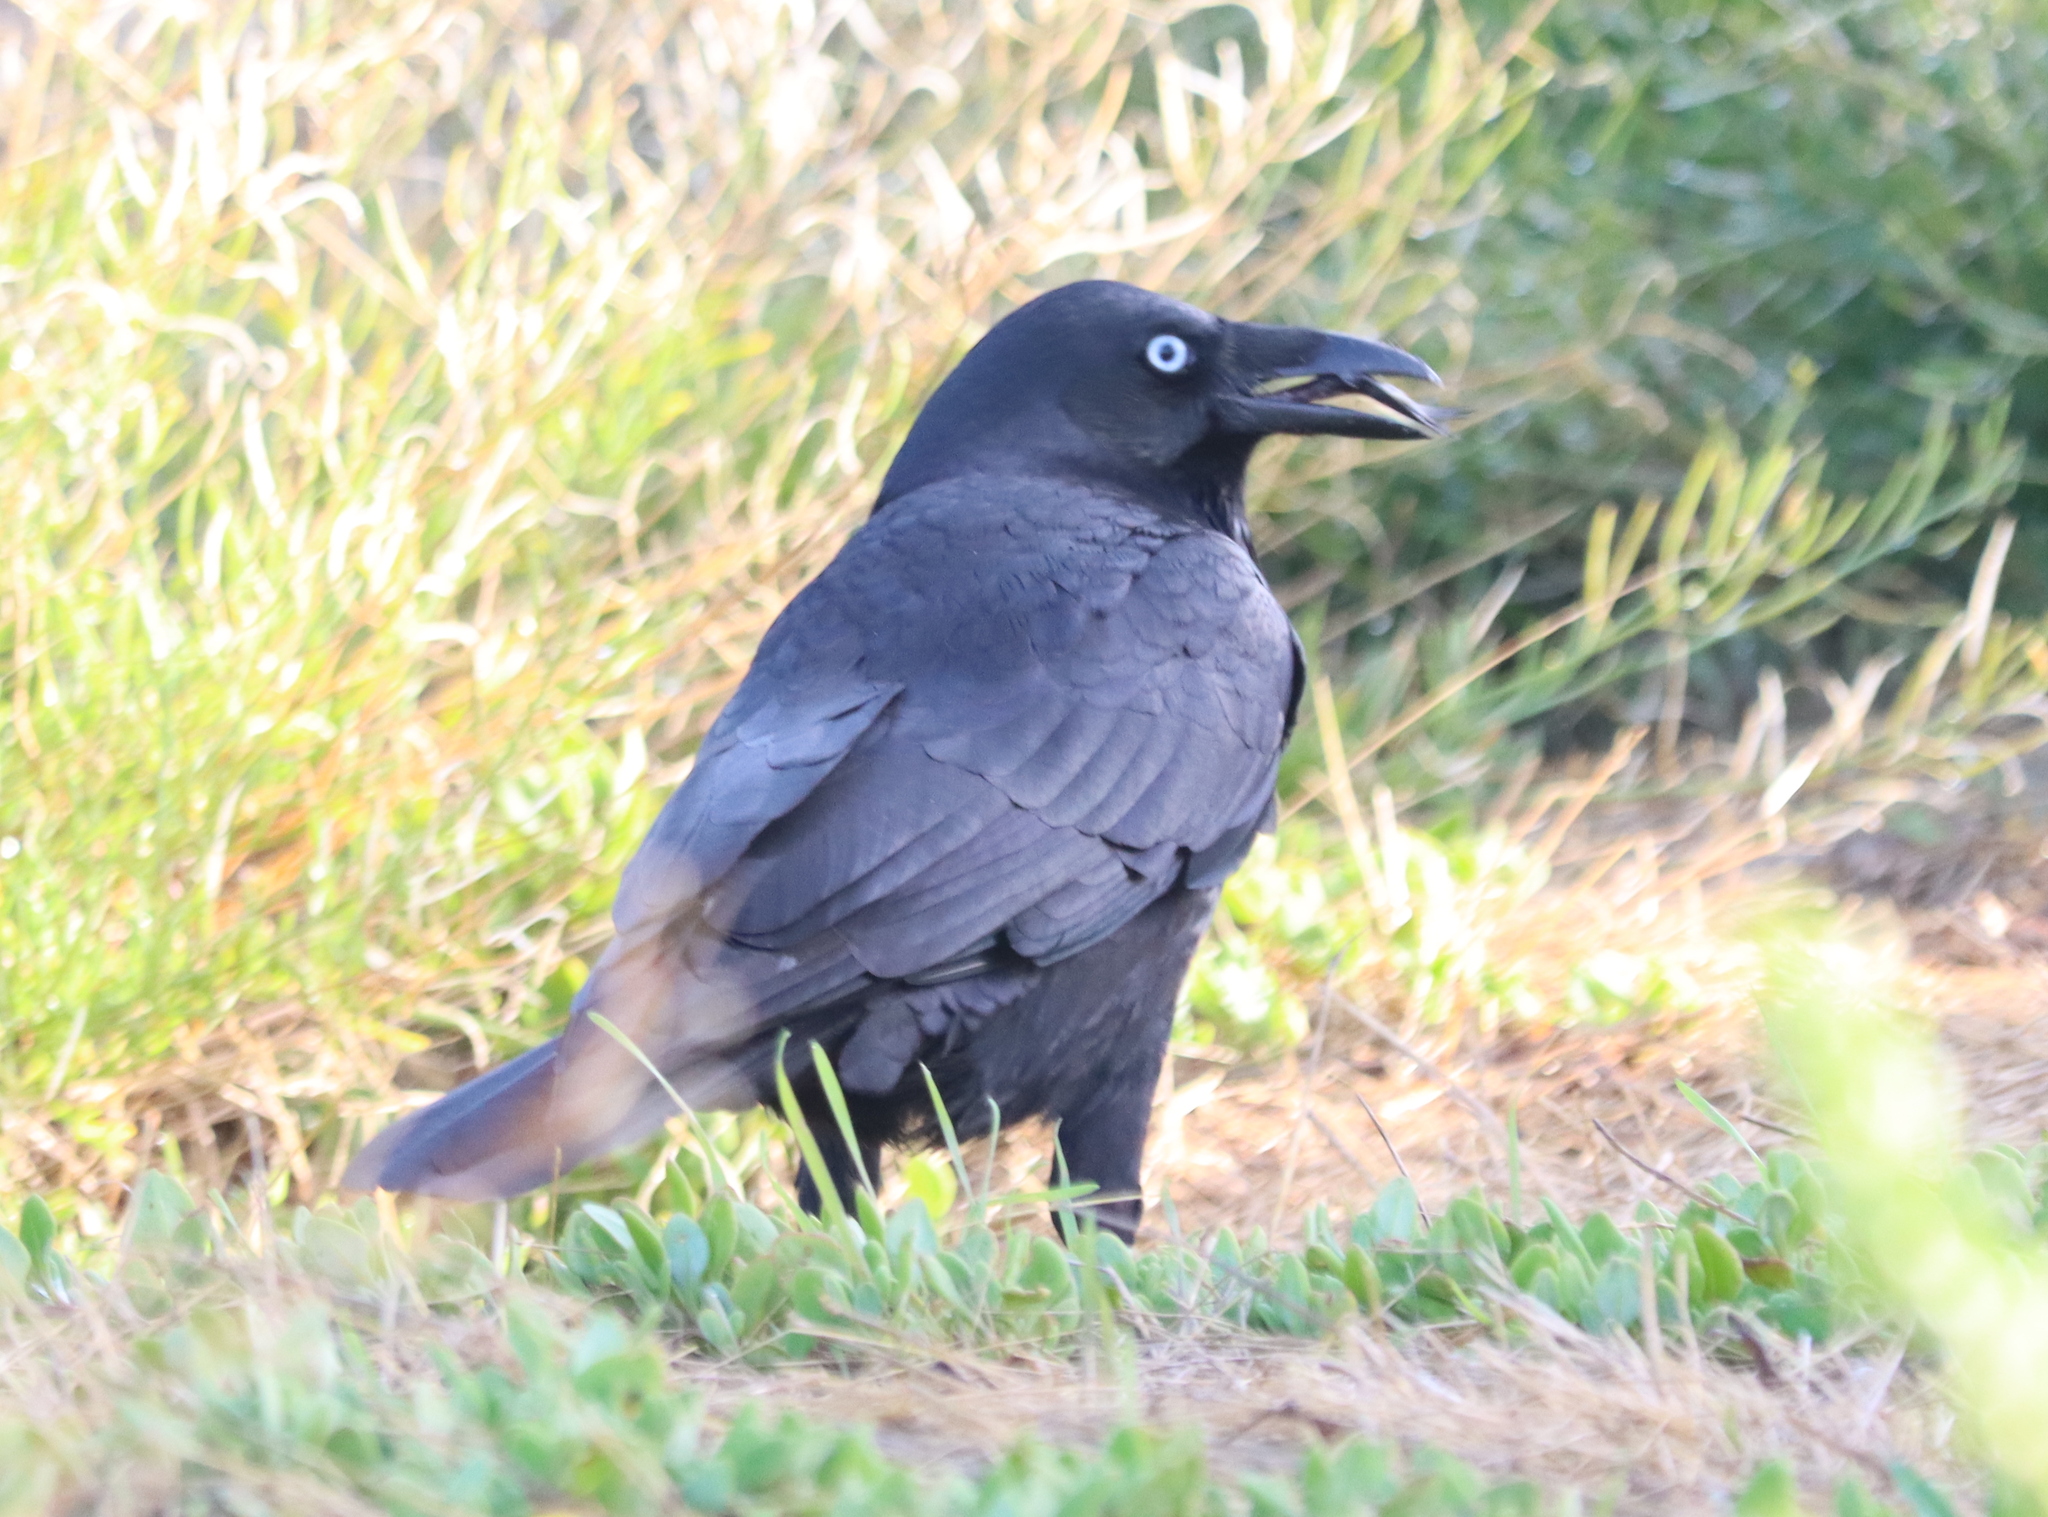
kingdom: Animalia
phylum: Chordata
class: Aves
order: Passeriformes
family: Corvidae
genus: Corvus
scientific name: Corvus coronoides
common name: Australian raven
